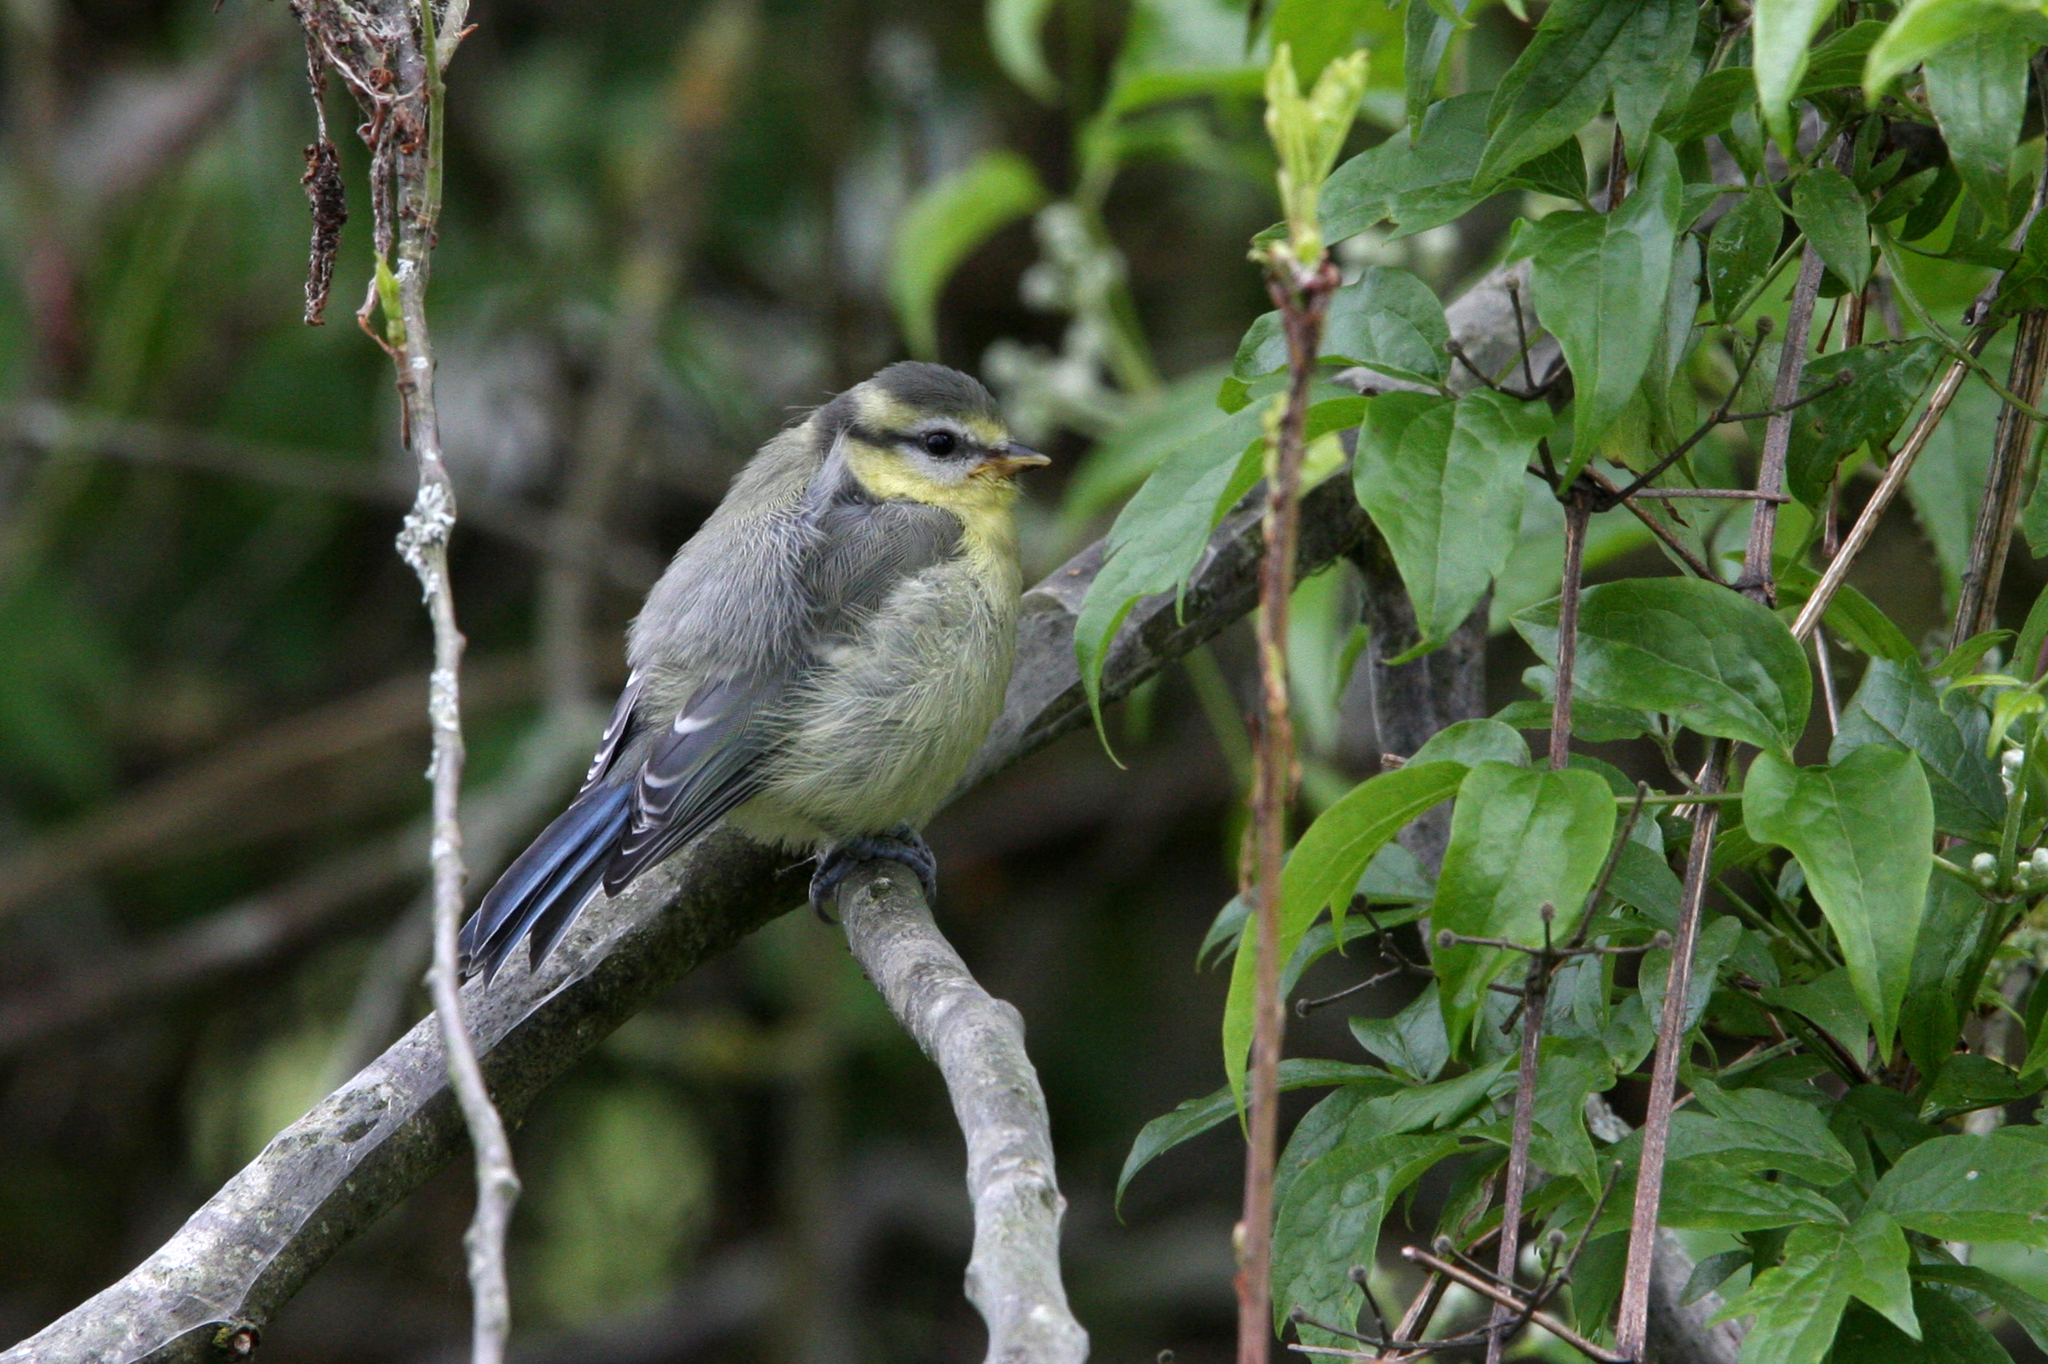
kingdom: Animalia
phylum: Chordata
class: Aves
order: Passeriformes
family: Paridae
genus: Cyanistes
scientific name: Cyanistes caeruleus
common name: Eurasian blue tit
